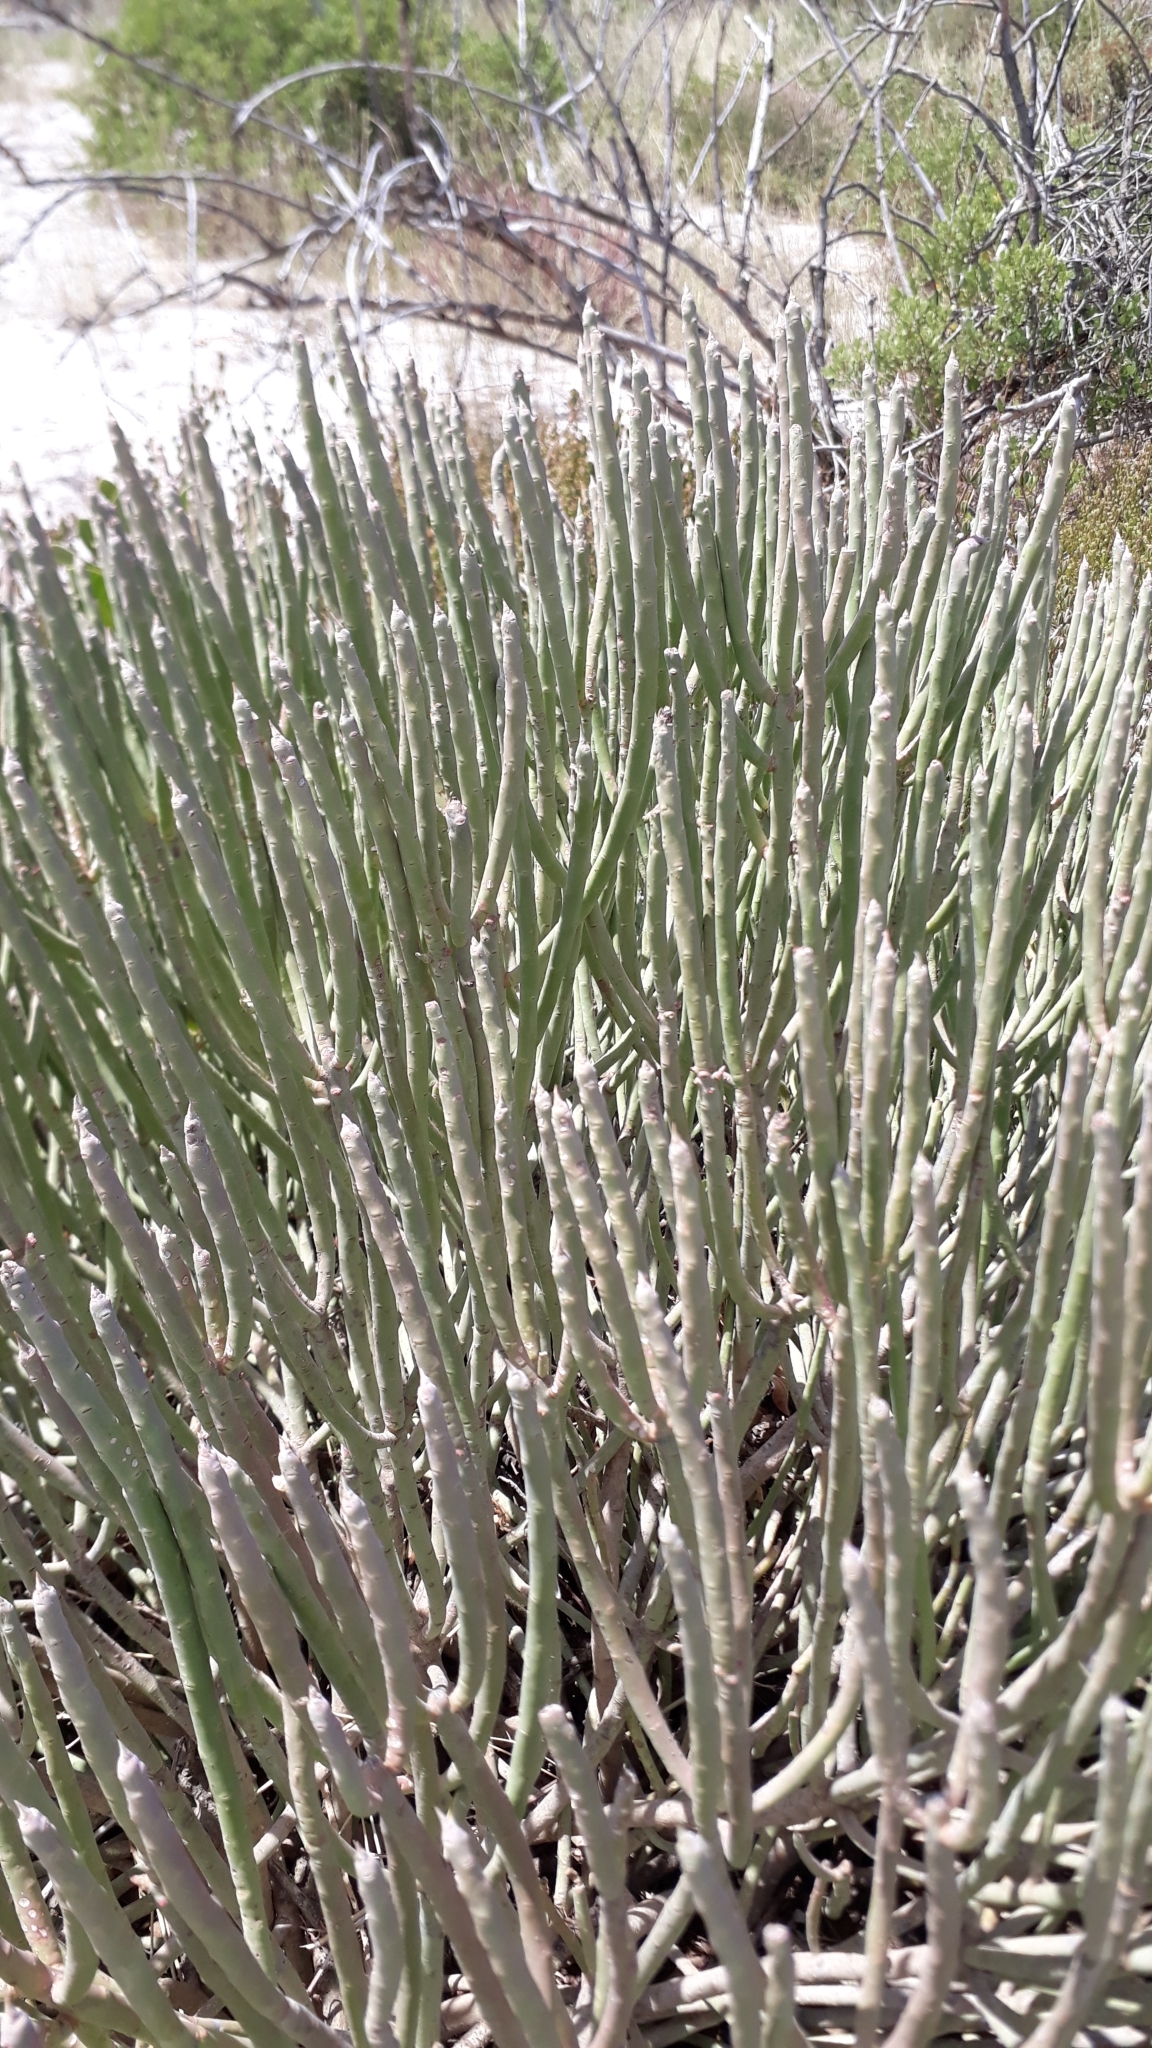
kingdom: Plantae
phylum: Tracheophyta
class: Magnoliopsida
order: Malpighiales
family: Euphorbiaceae
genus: Euphorbia
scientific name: Euphorbia mauritanica
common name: Jackal's-food
